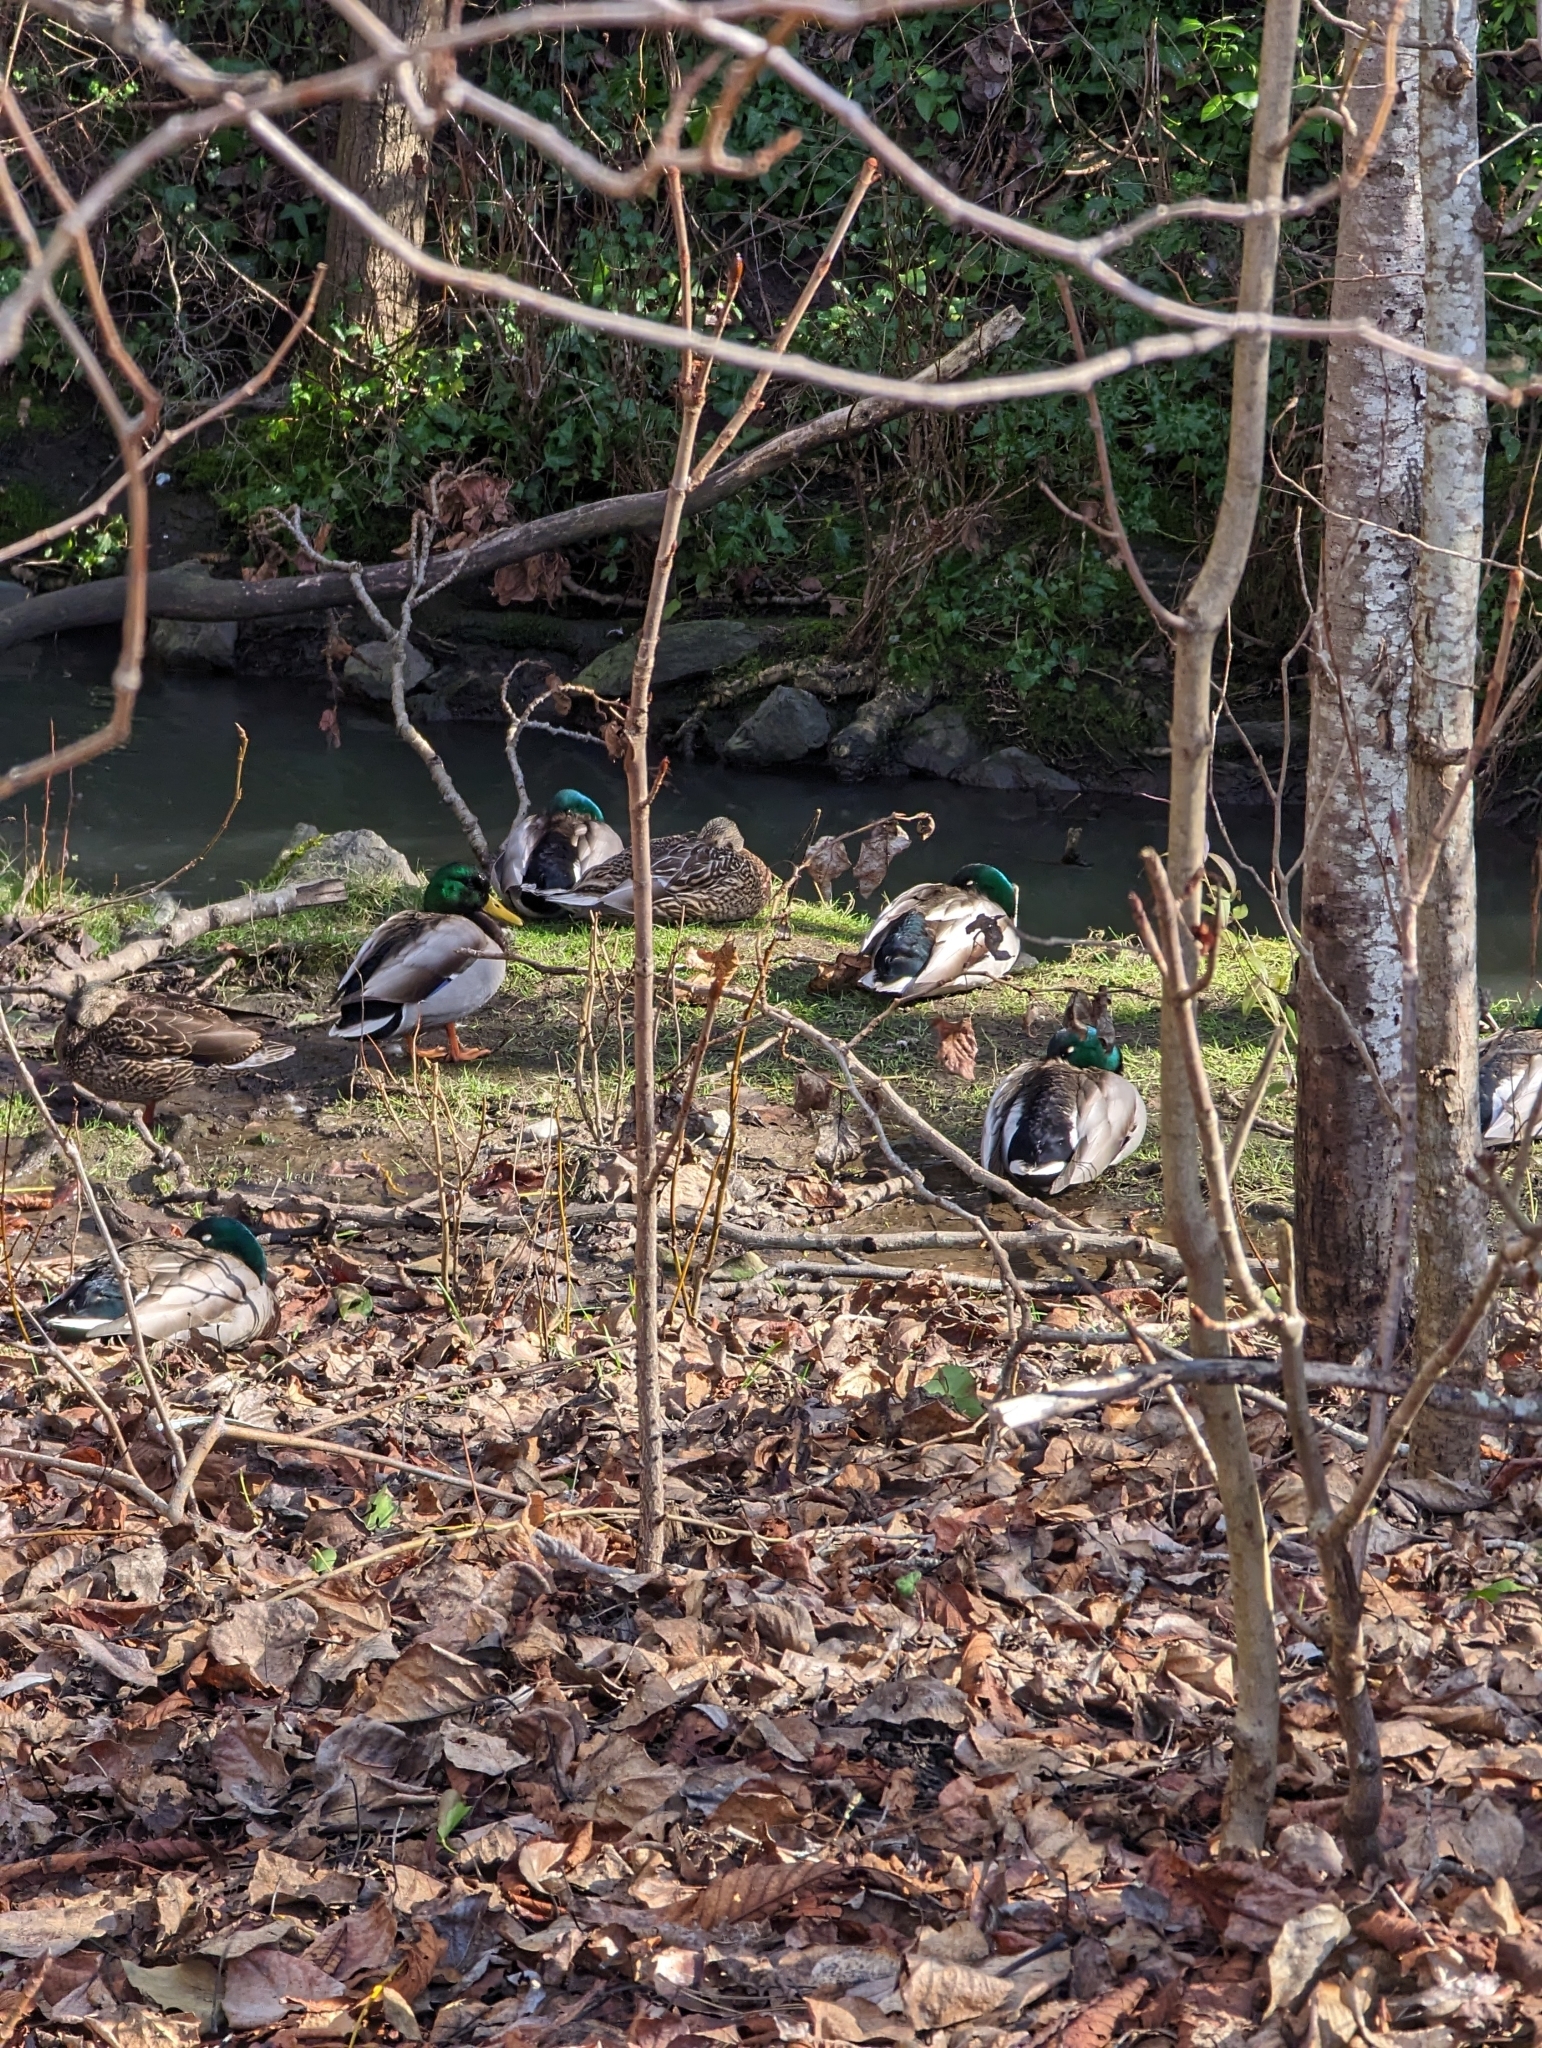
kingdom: Animalia
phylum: Chordata
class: Aves
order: Anseriformes
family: Anatidae
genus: Anas
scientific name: Anas platyrhynchos
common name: Mallard
